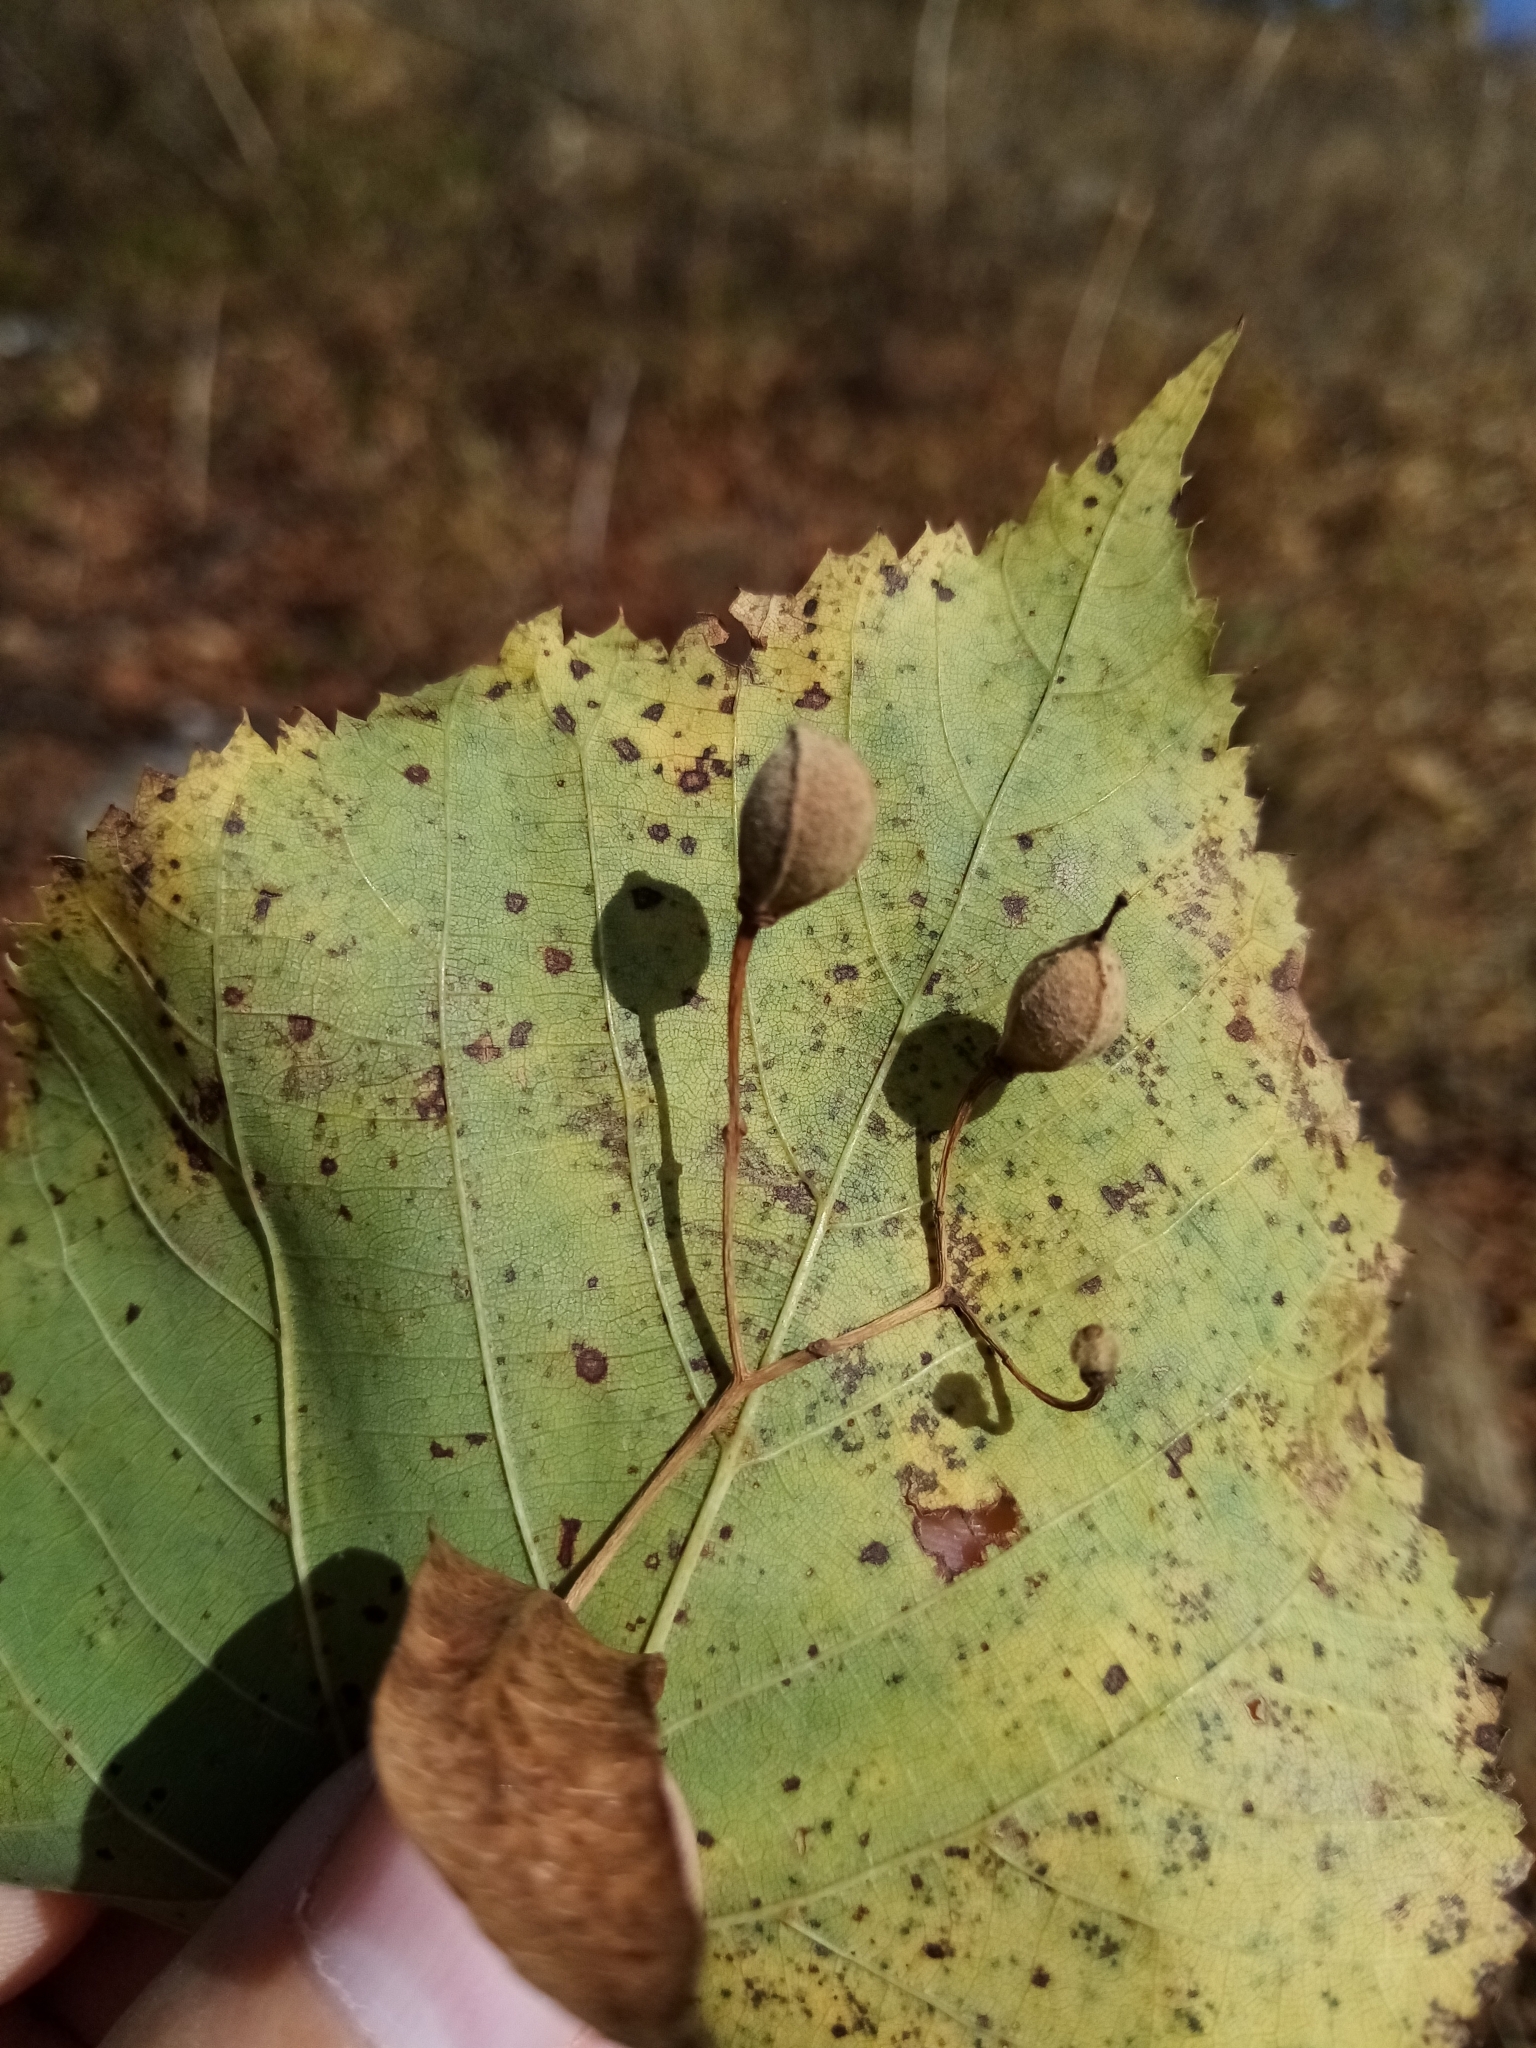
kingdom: Plantae
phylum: Tracheophyta
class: Magnoliopsida
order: Malvales
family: Malvaceae
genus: Tilia
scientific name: Tilia
